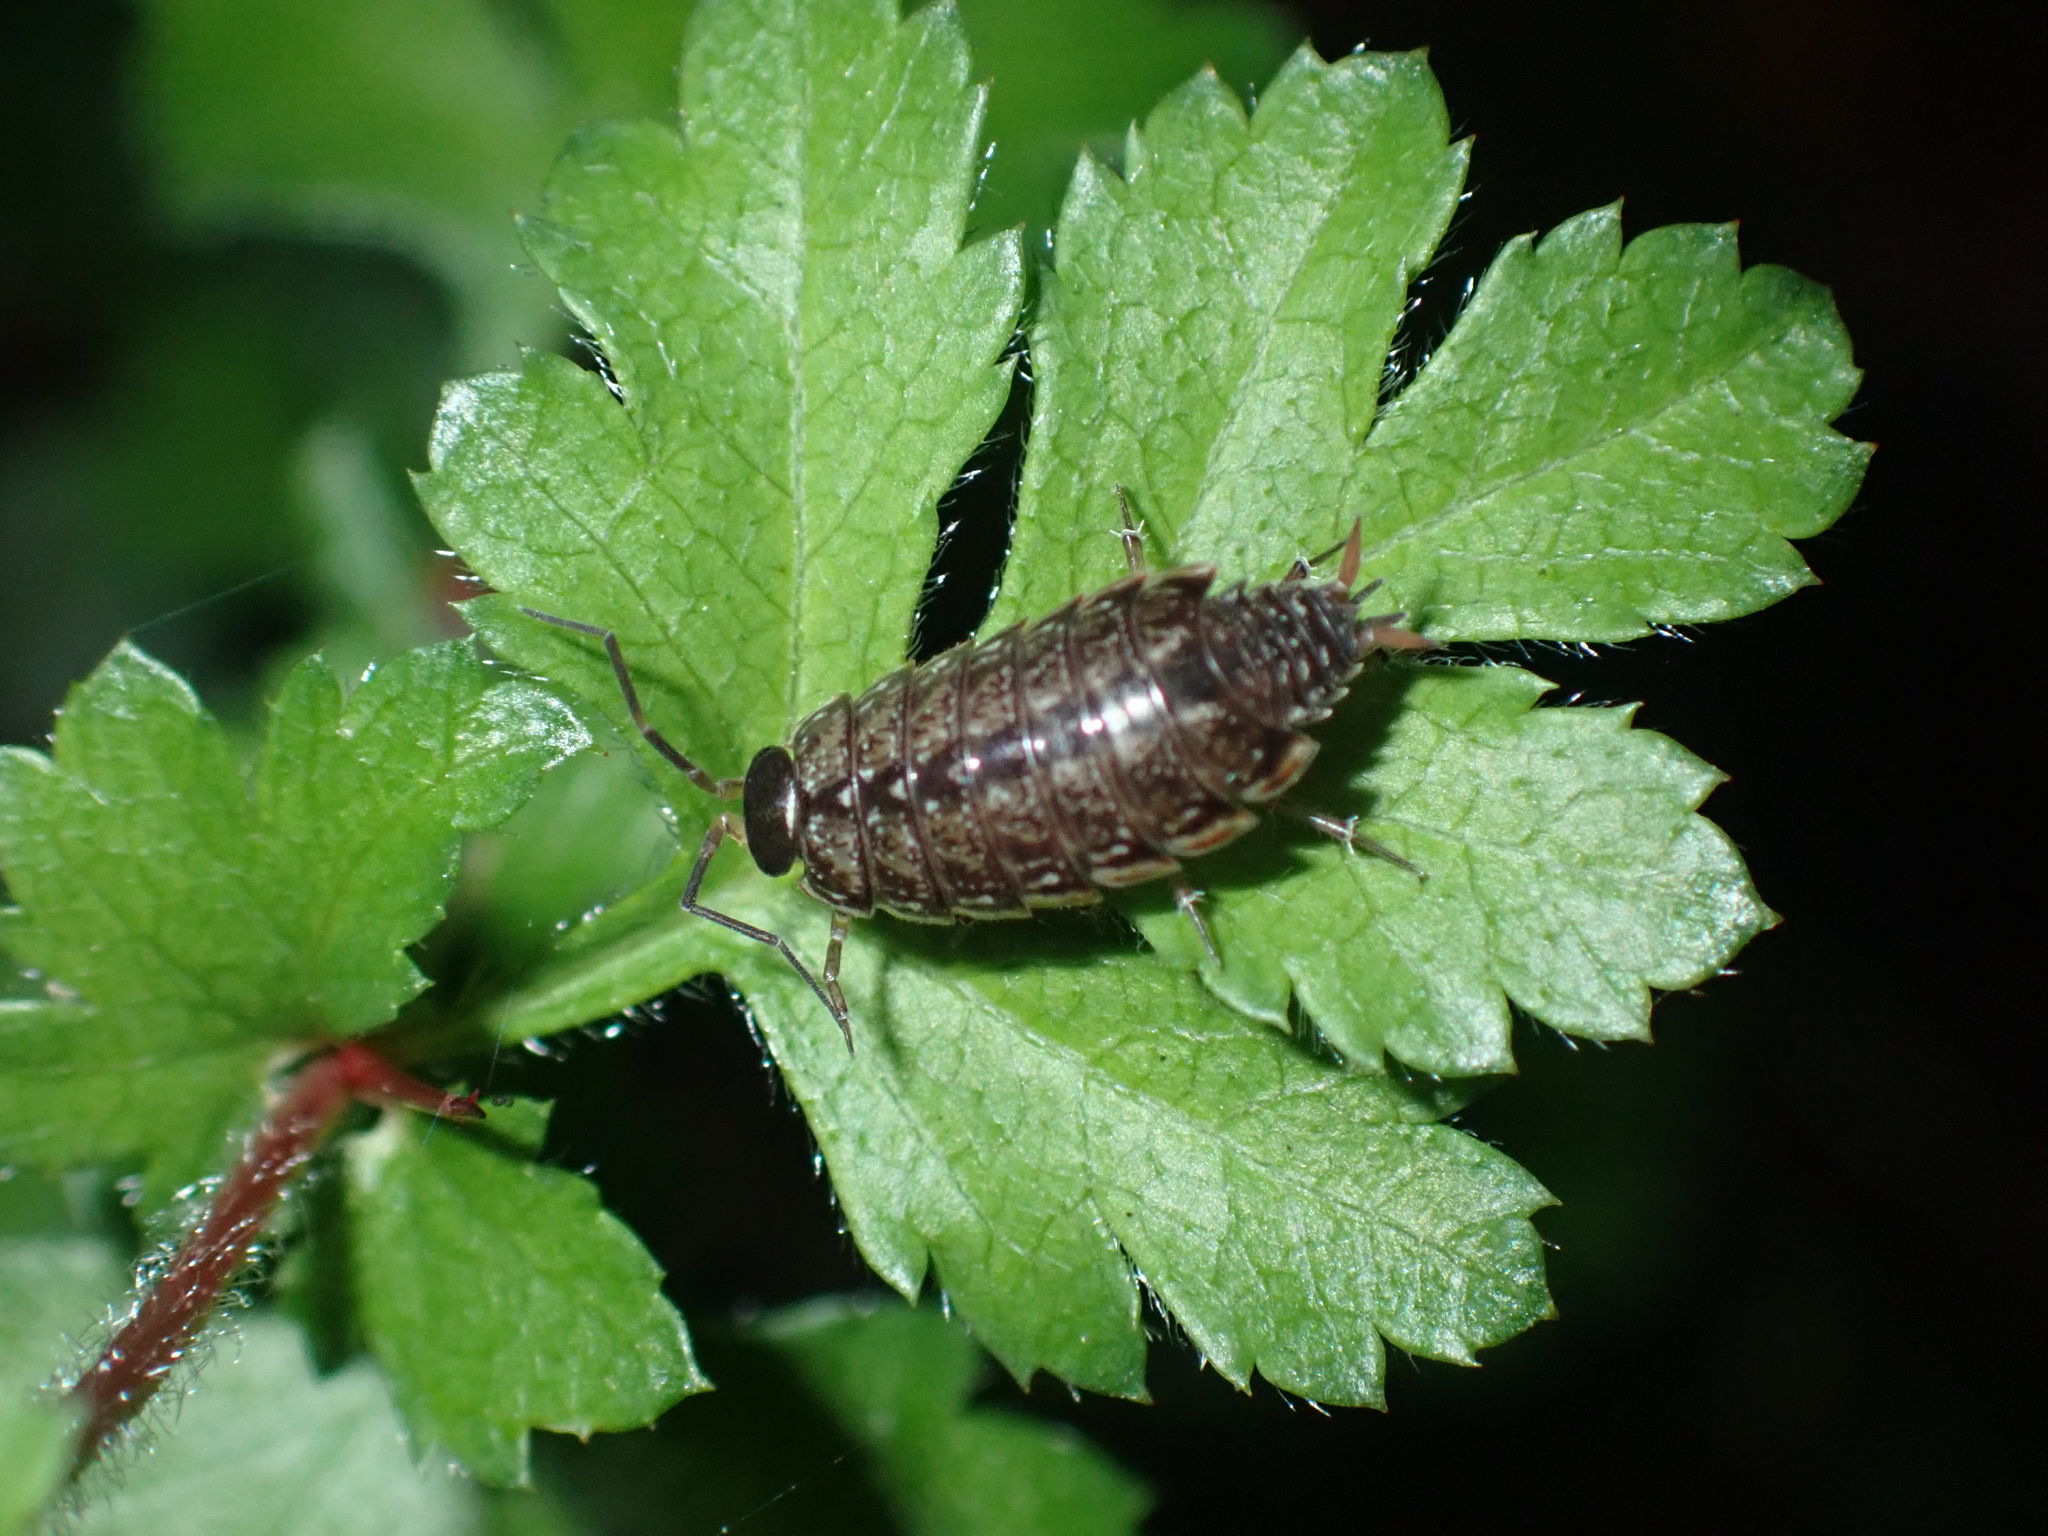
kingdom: Animalia
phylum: Arthropoda
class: Malacostraca
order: Isopoda
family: Philosciidae
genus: Philoscia
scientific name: Philoscia muscorum
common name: Common striped woodlouse
